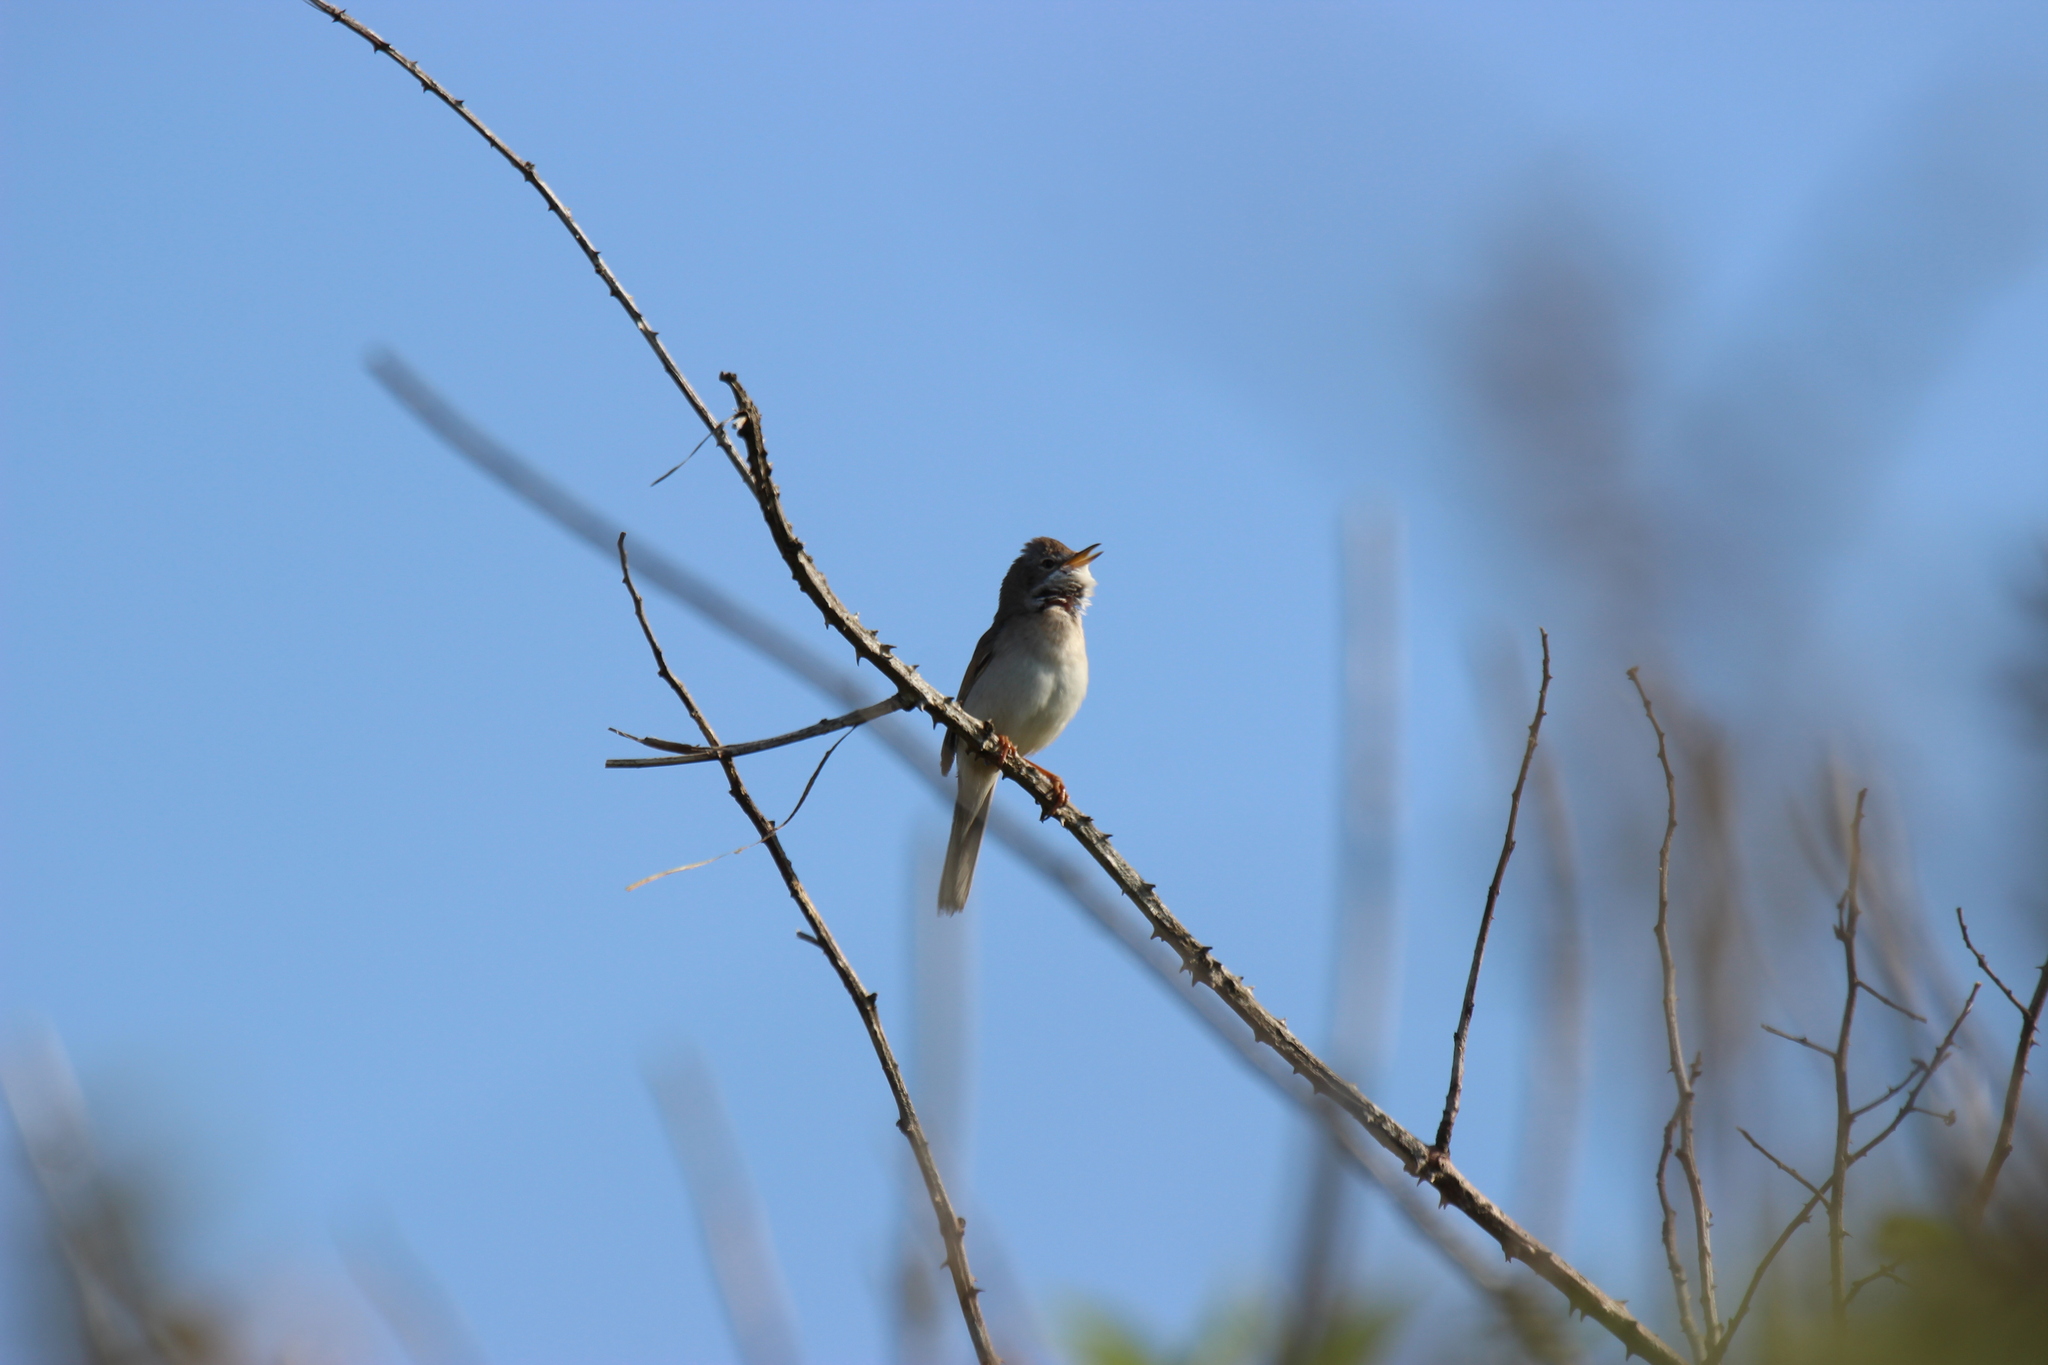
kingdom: Animalia
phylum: Chordata
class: Aves
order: Passeriformes
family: Sylviidae
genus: Sylvia
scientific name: Sylvia communis
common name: Common whitethroat
